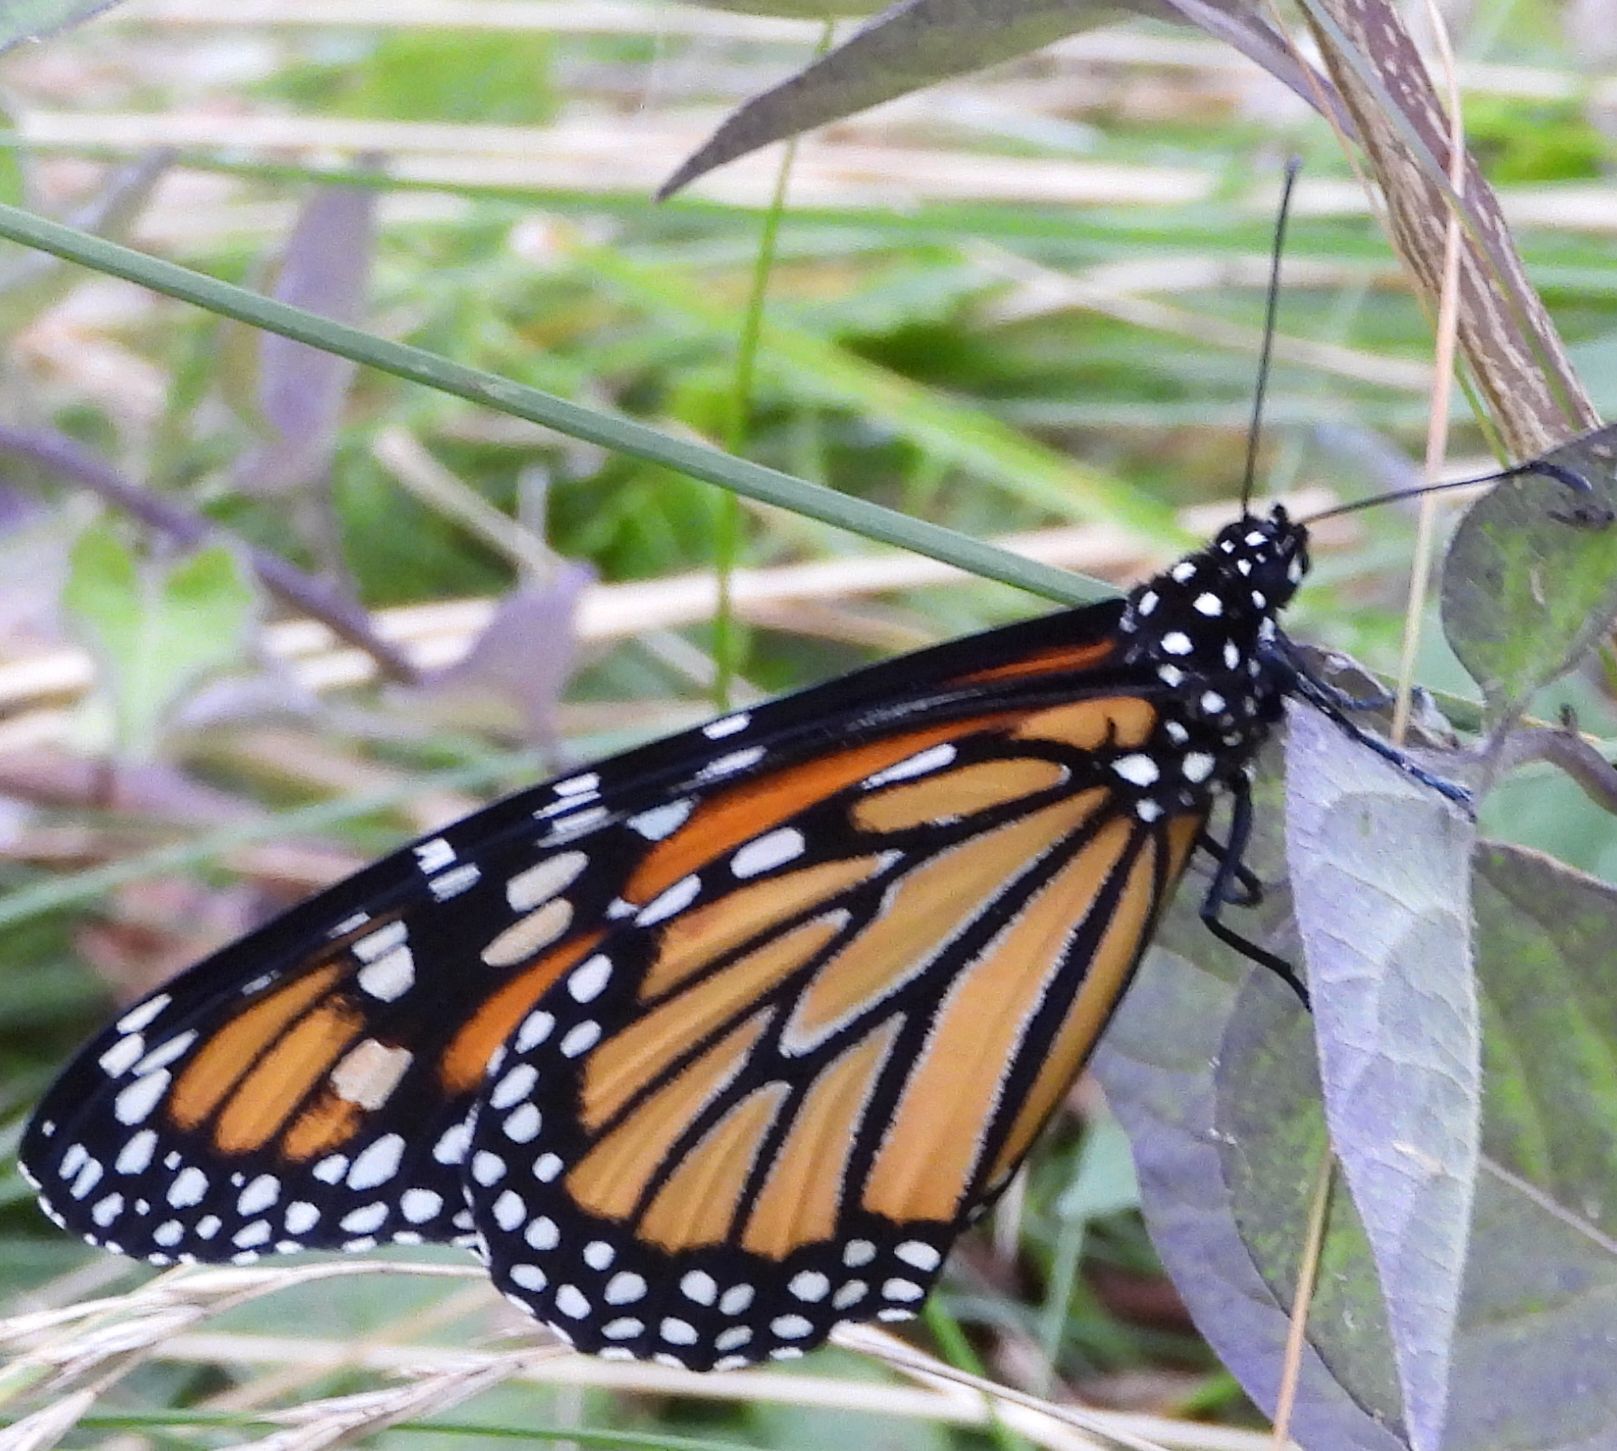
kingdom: Animalia
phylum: Arthropoda
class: Insecta
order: Lepidoptera
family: Nymphalidae
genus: Danaus
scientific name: Danaus plexippus
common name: Monarch
